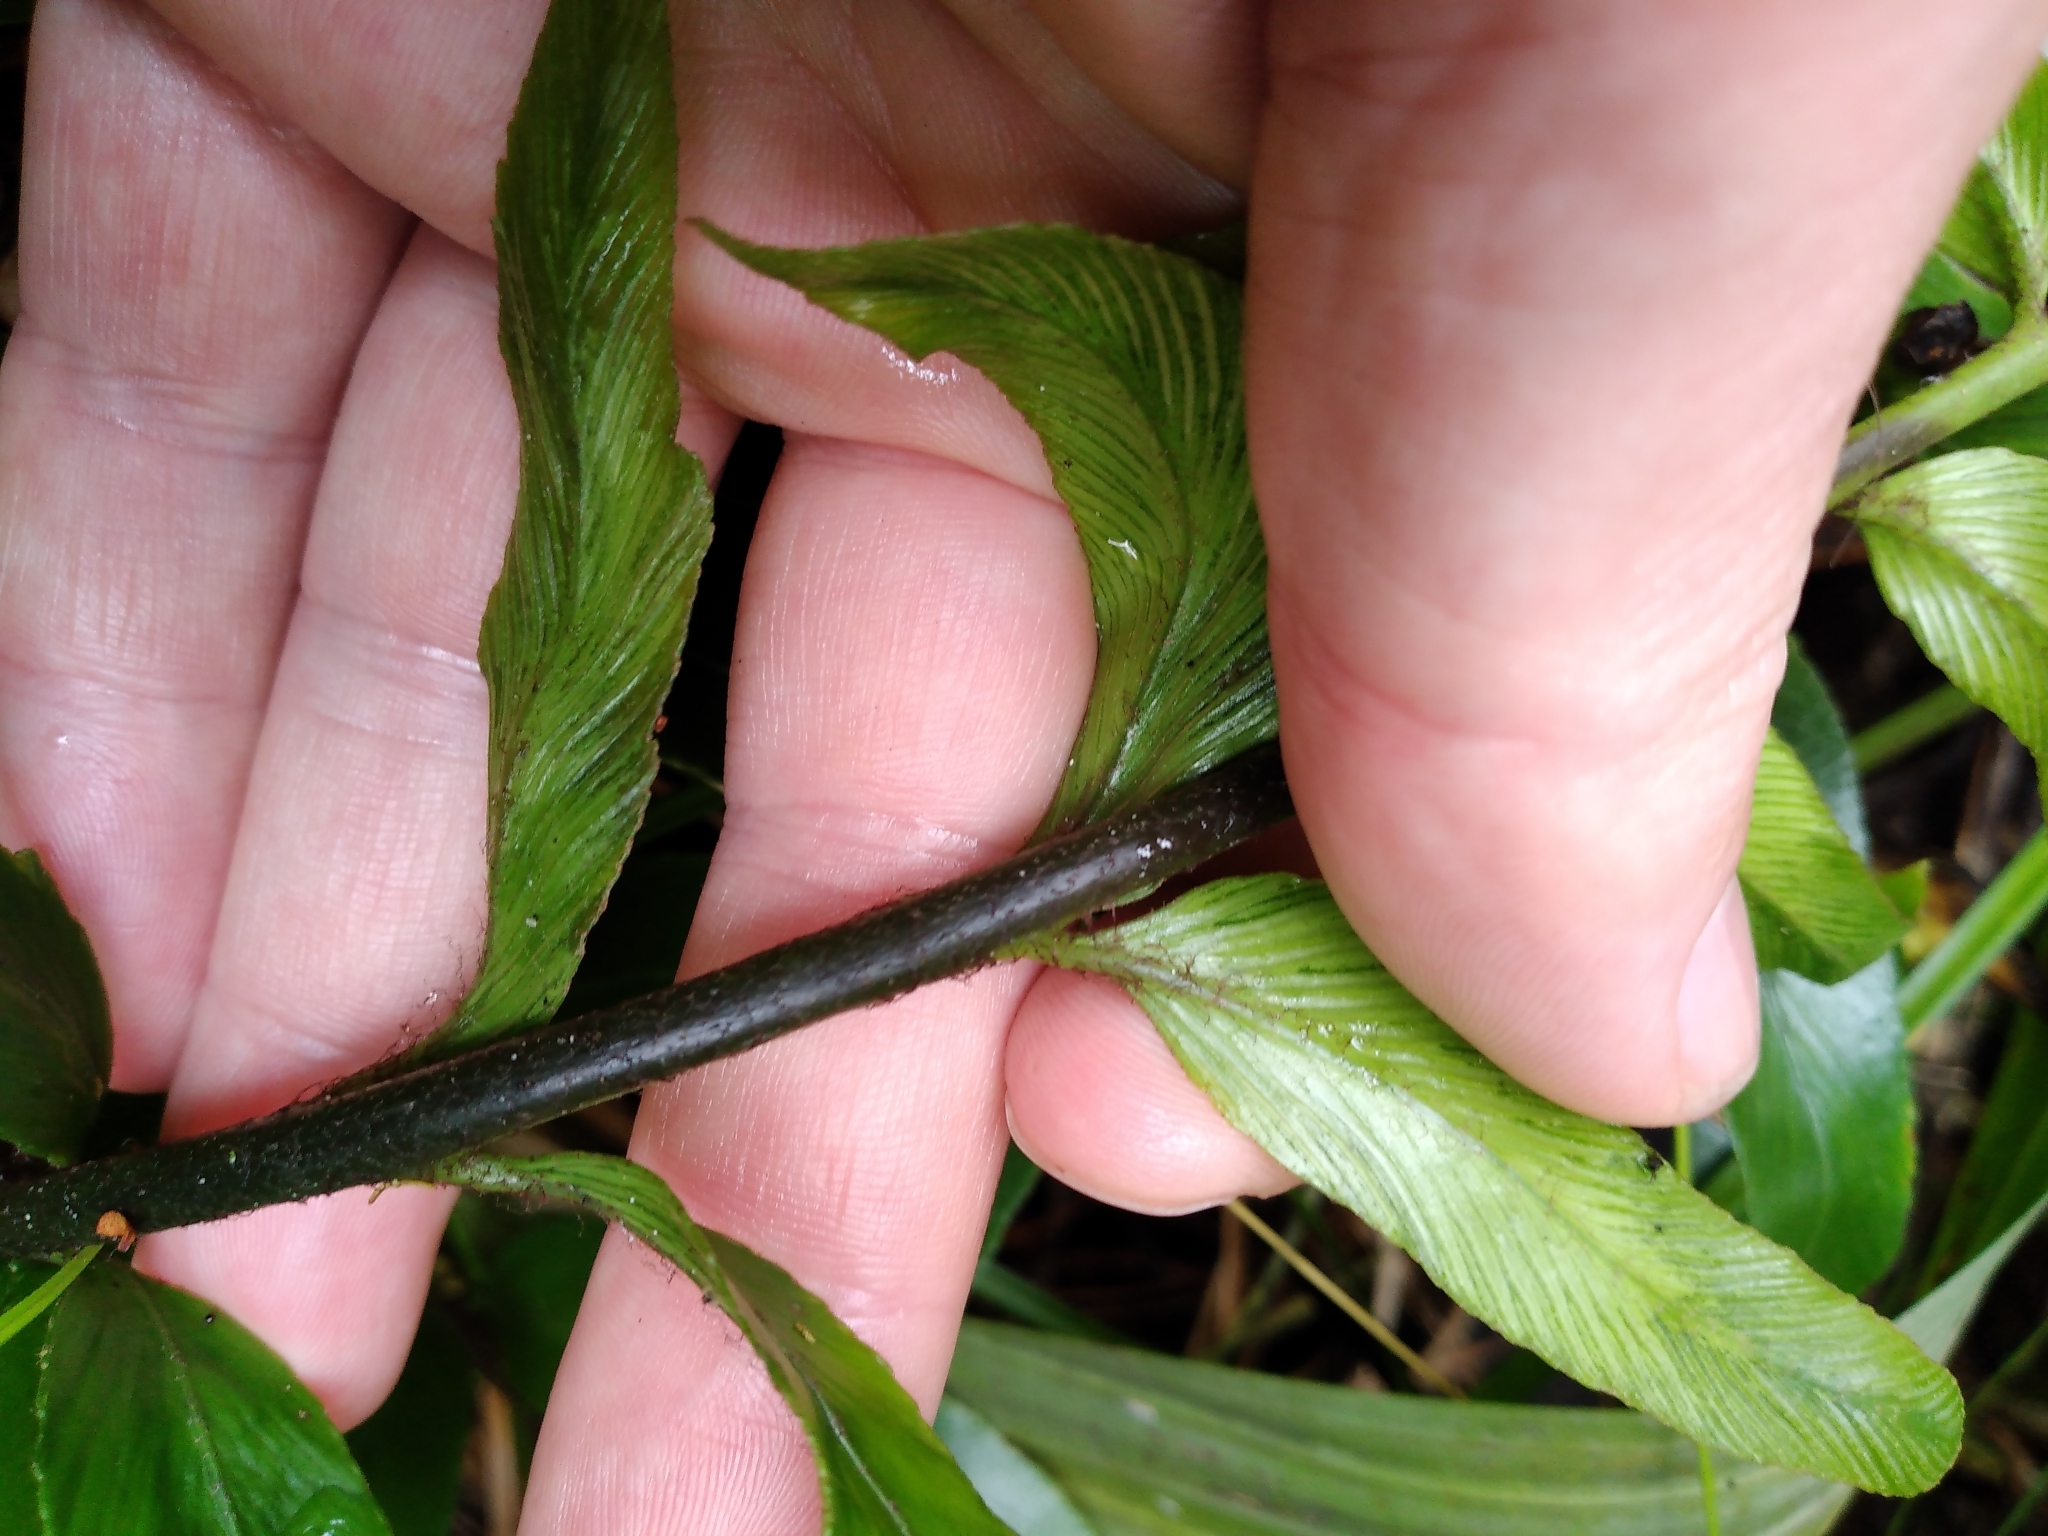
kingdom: Plantae
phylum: Tracheophyta
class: Polypodiopsida
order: Polypodiales
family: Aspleniaceae
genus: Asplenium
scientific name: Asplenium oblongifolium
